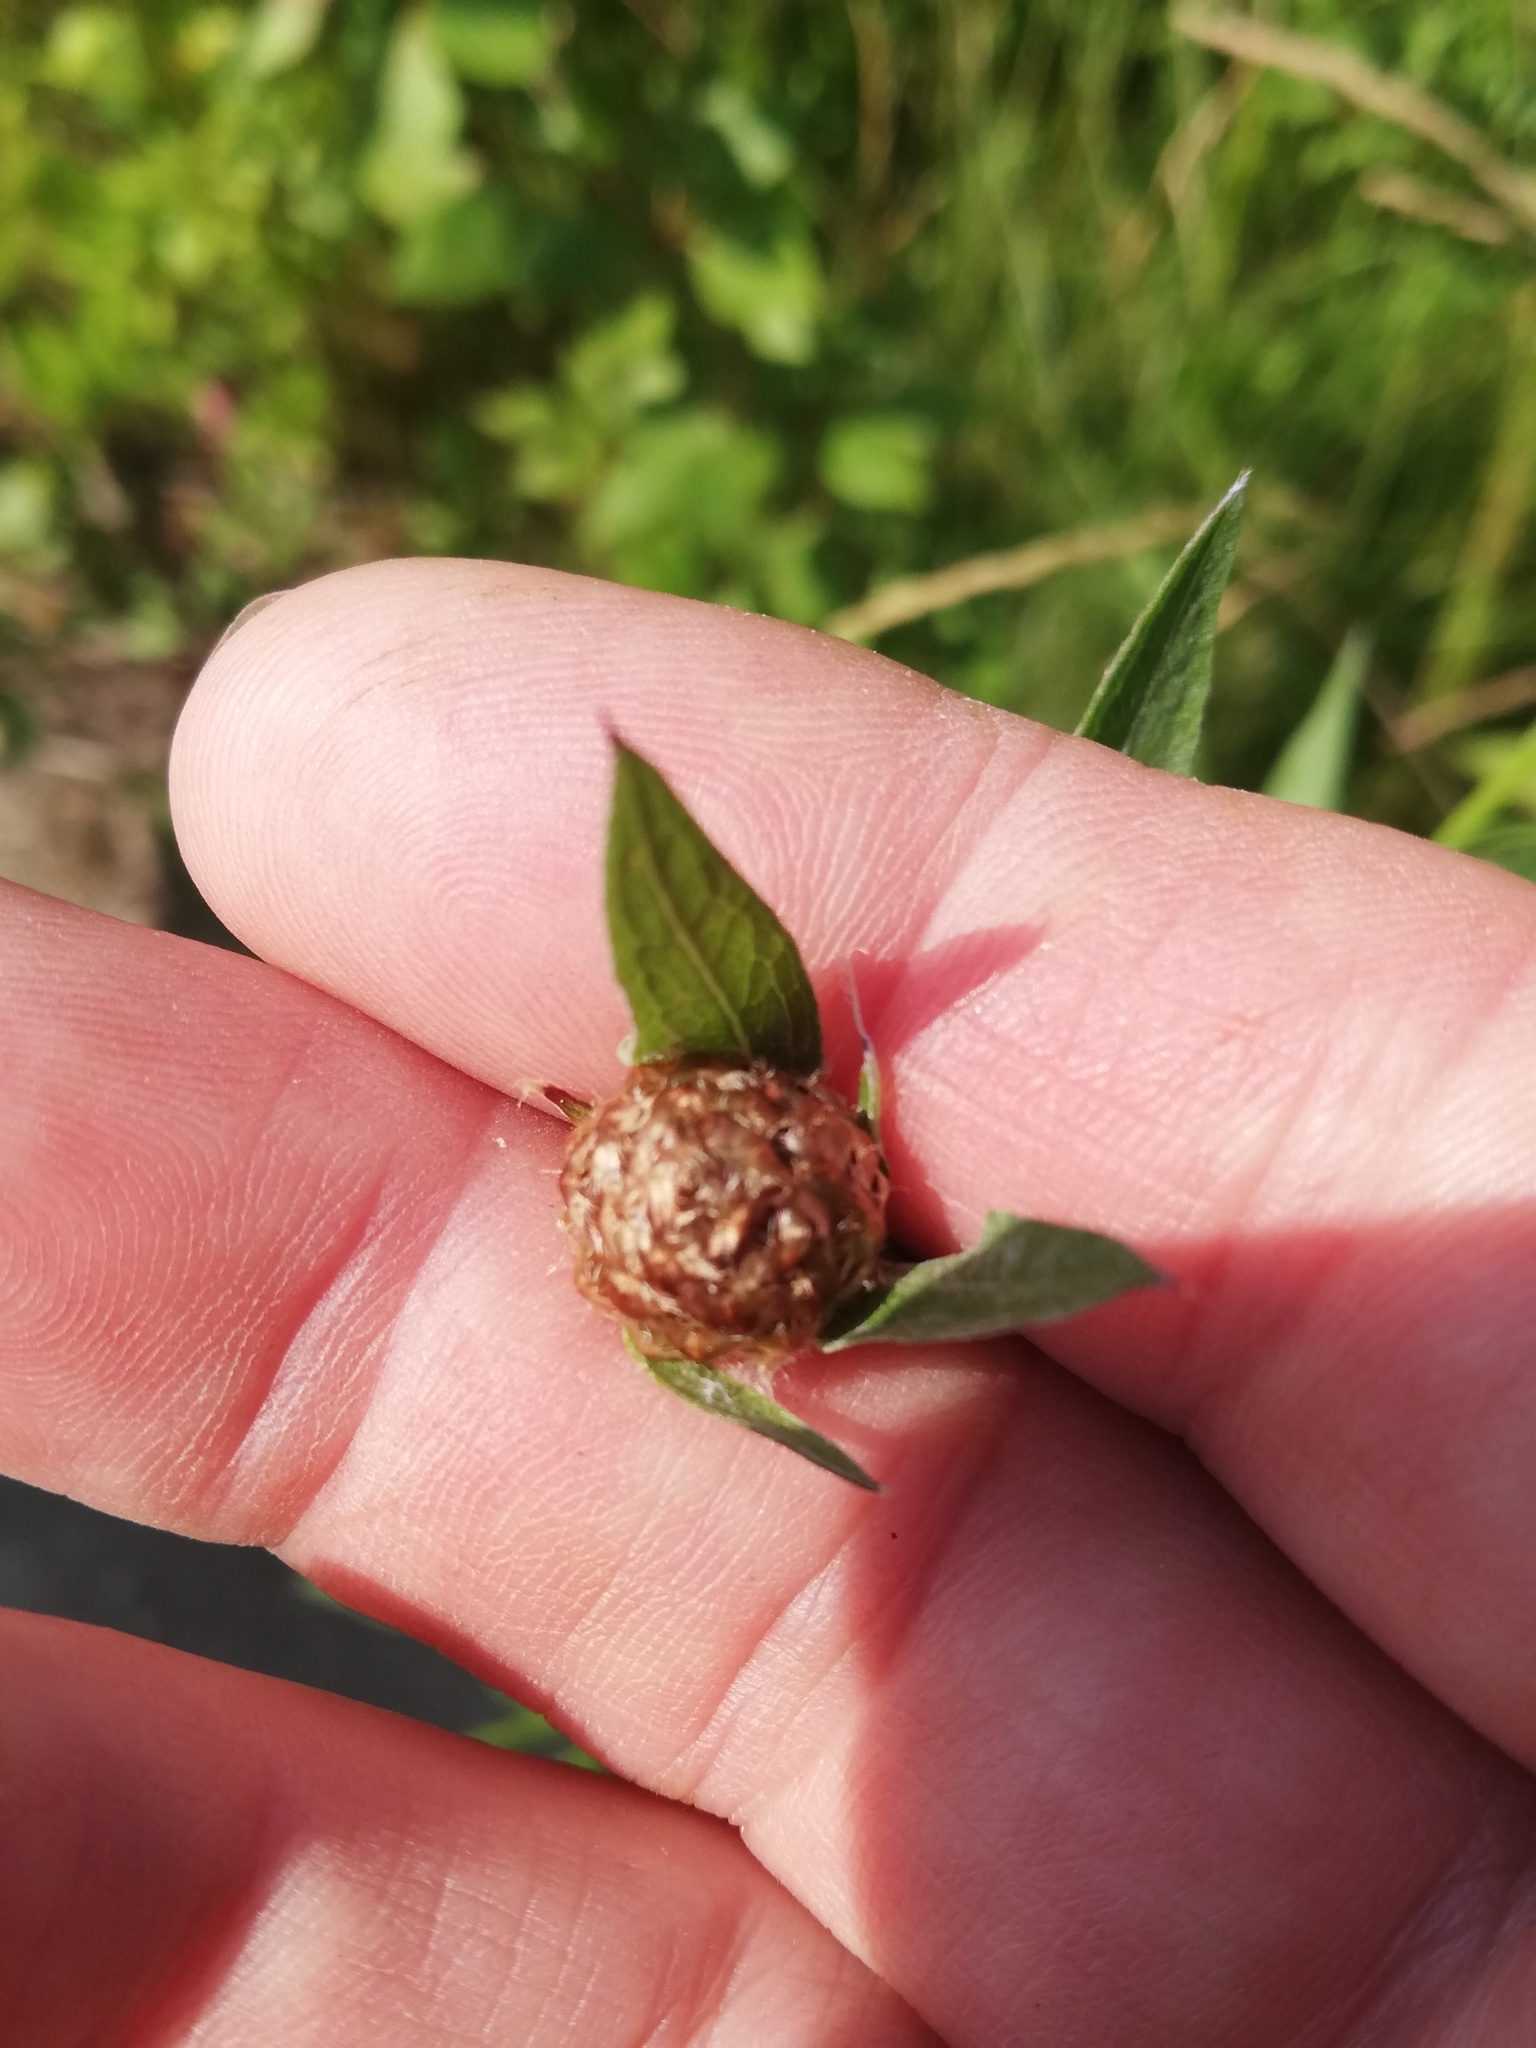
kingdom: Plantae
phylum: Tracheophyta
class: Magnoliopsida
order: Asterales
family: Asteraceae
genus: Centaurea
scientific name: Centaurea jacea
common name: Brown knapweed
